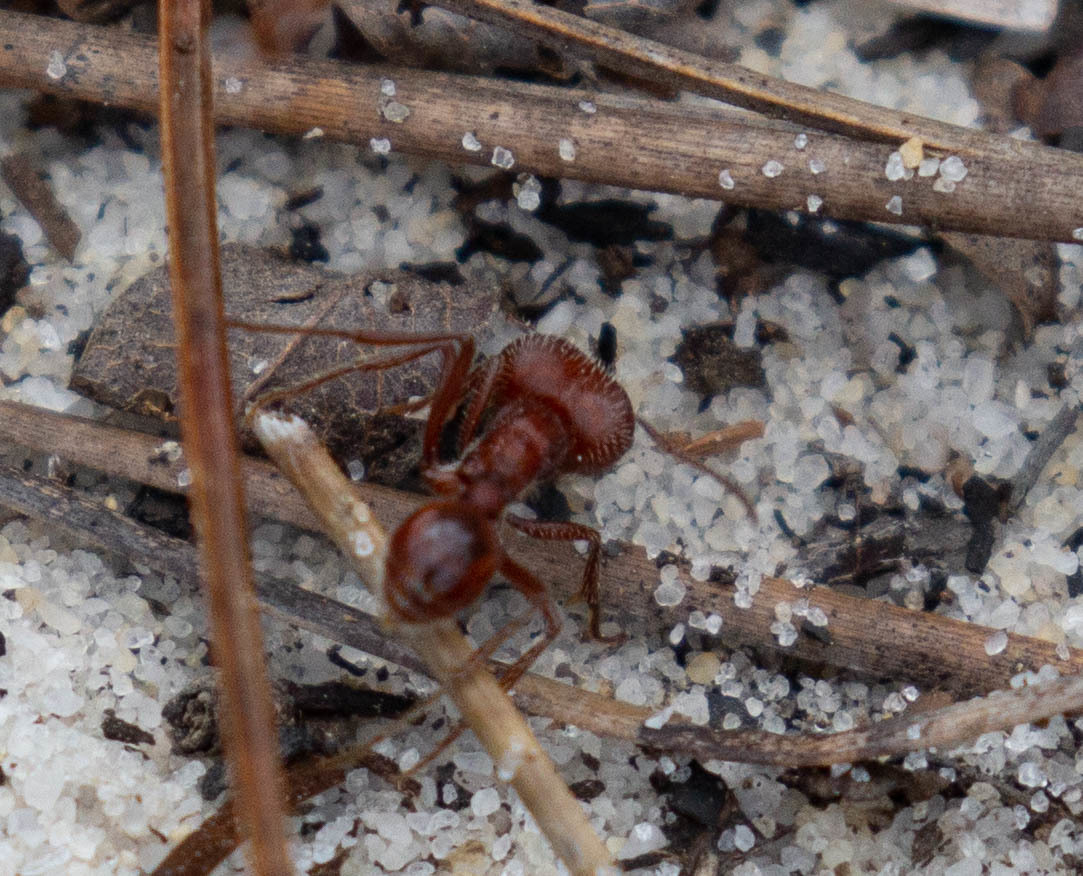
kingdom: Animalia
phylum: Arthropoda
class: Insecta
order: Hymenoptera
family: Formicidae
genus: Pogonomyrmex
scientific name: Pogonomyrmex badius
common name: Florida harvester ant
